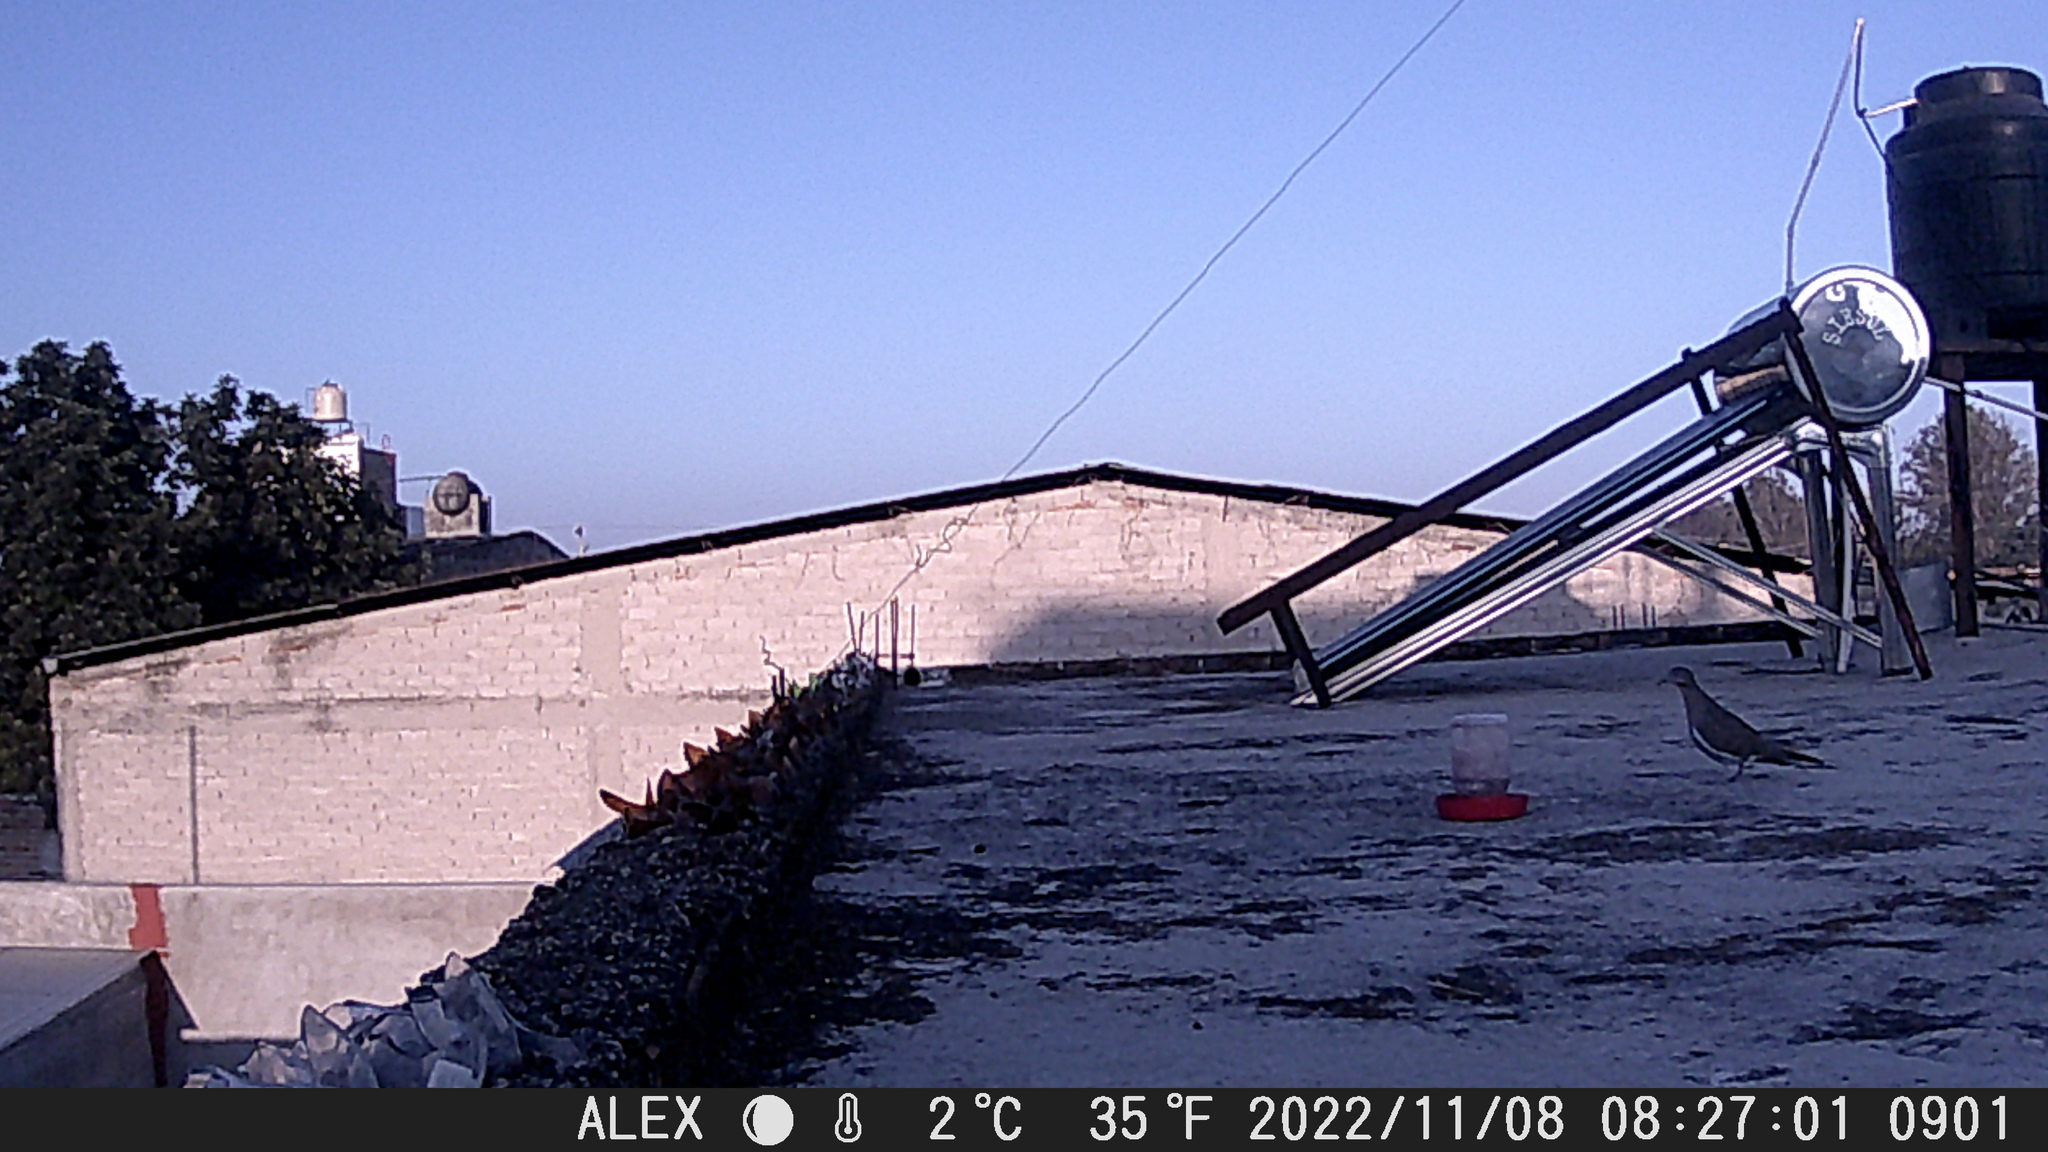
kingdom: Animalia
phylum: Chordata
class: Aves
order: Columbiformes
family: Columbidae
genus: Zenaida
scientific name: Zenaida asiatica
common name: White-winged dove
